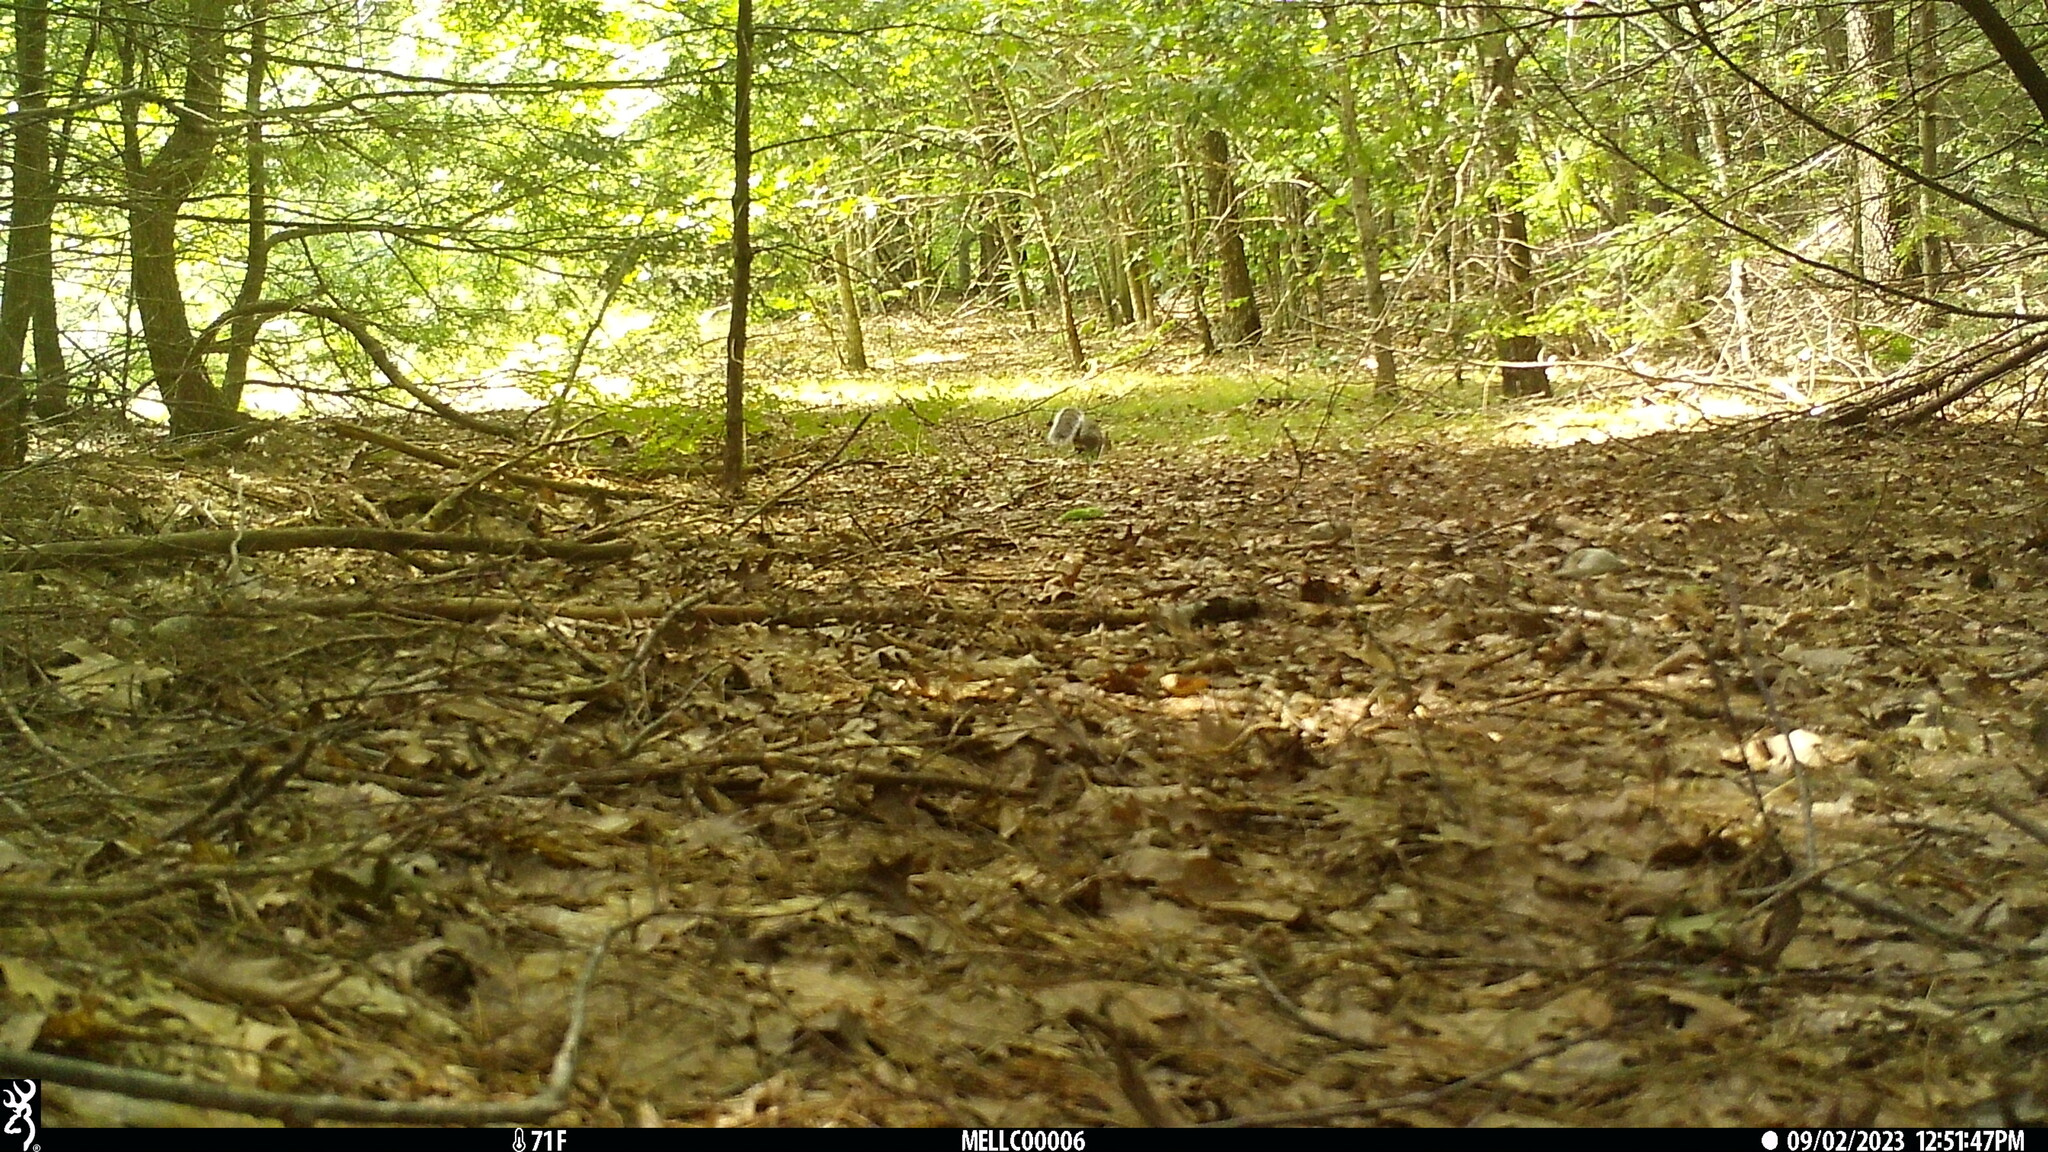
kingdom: Animalia
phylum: Chordata
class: Mammalia
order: Rodentia
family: Sciuridae
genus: Sciurus
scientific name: Sciurus carolinensis
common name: Eastern gray squirrel
